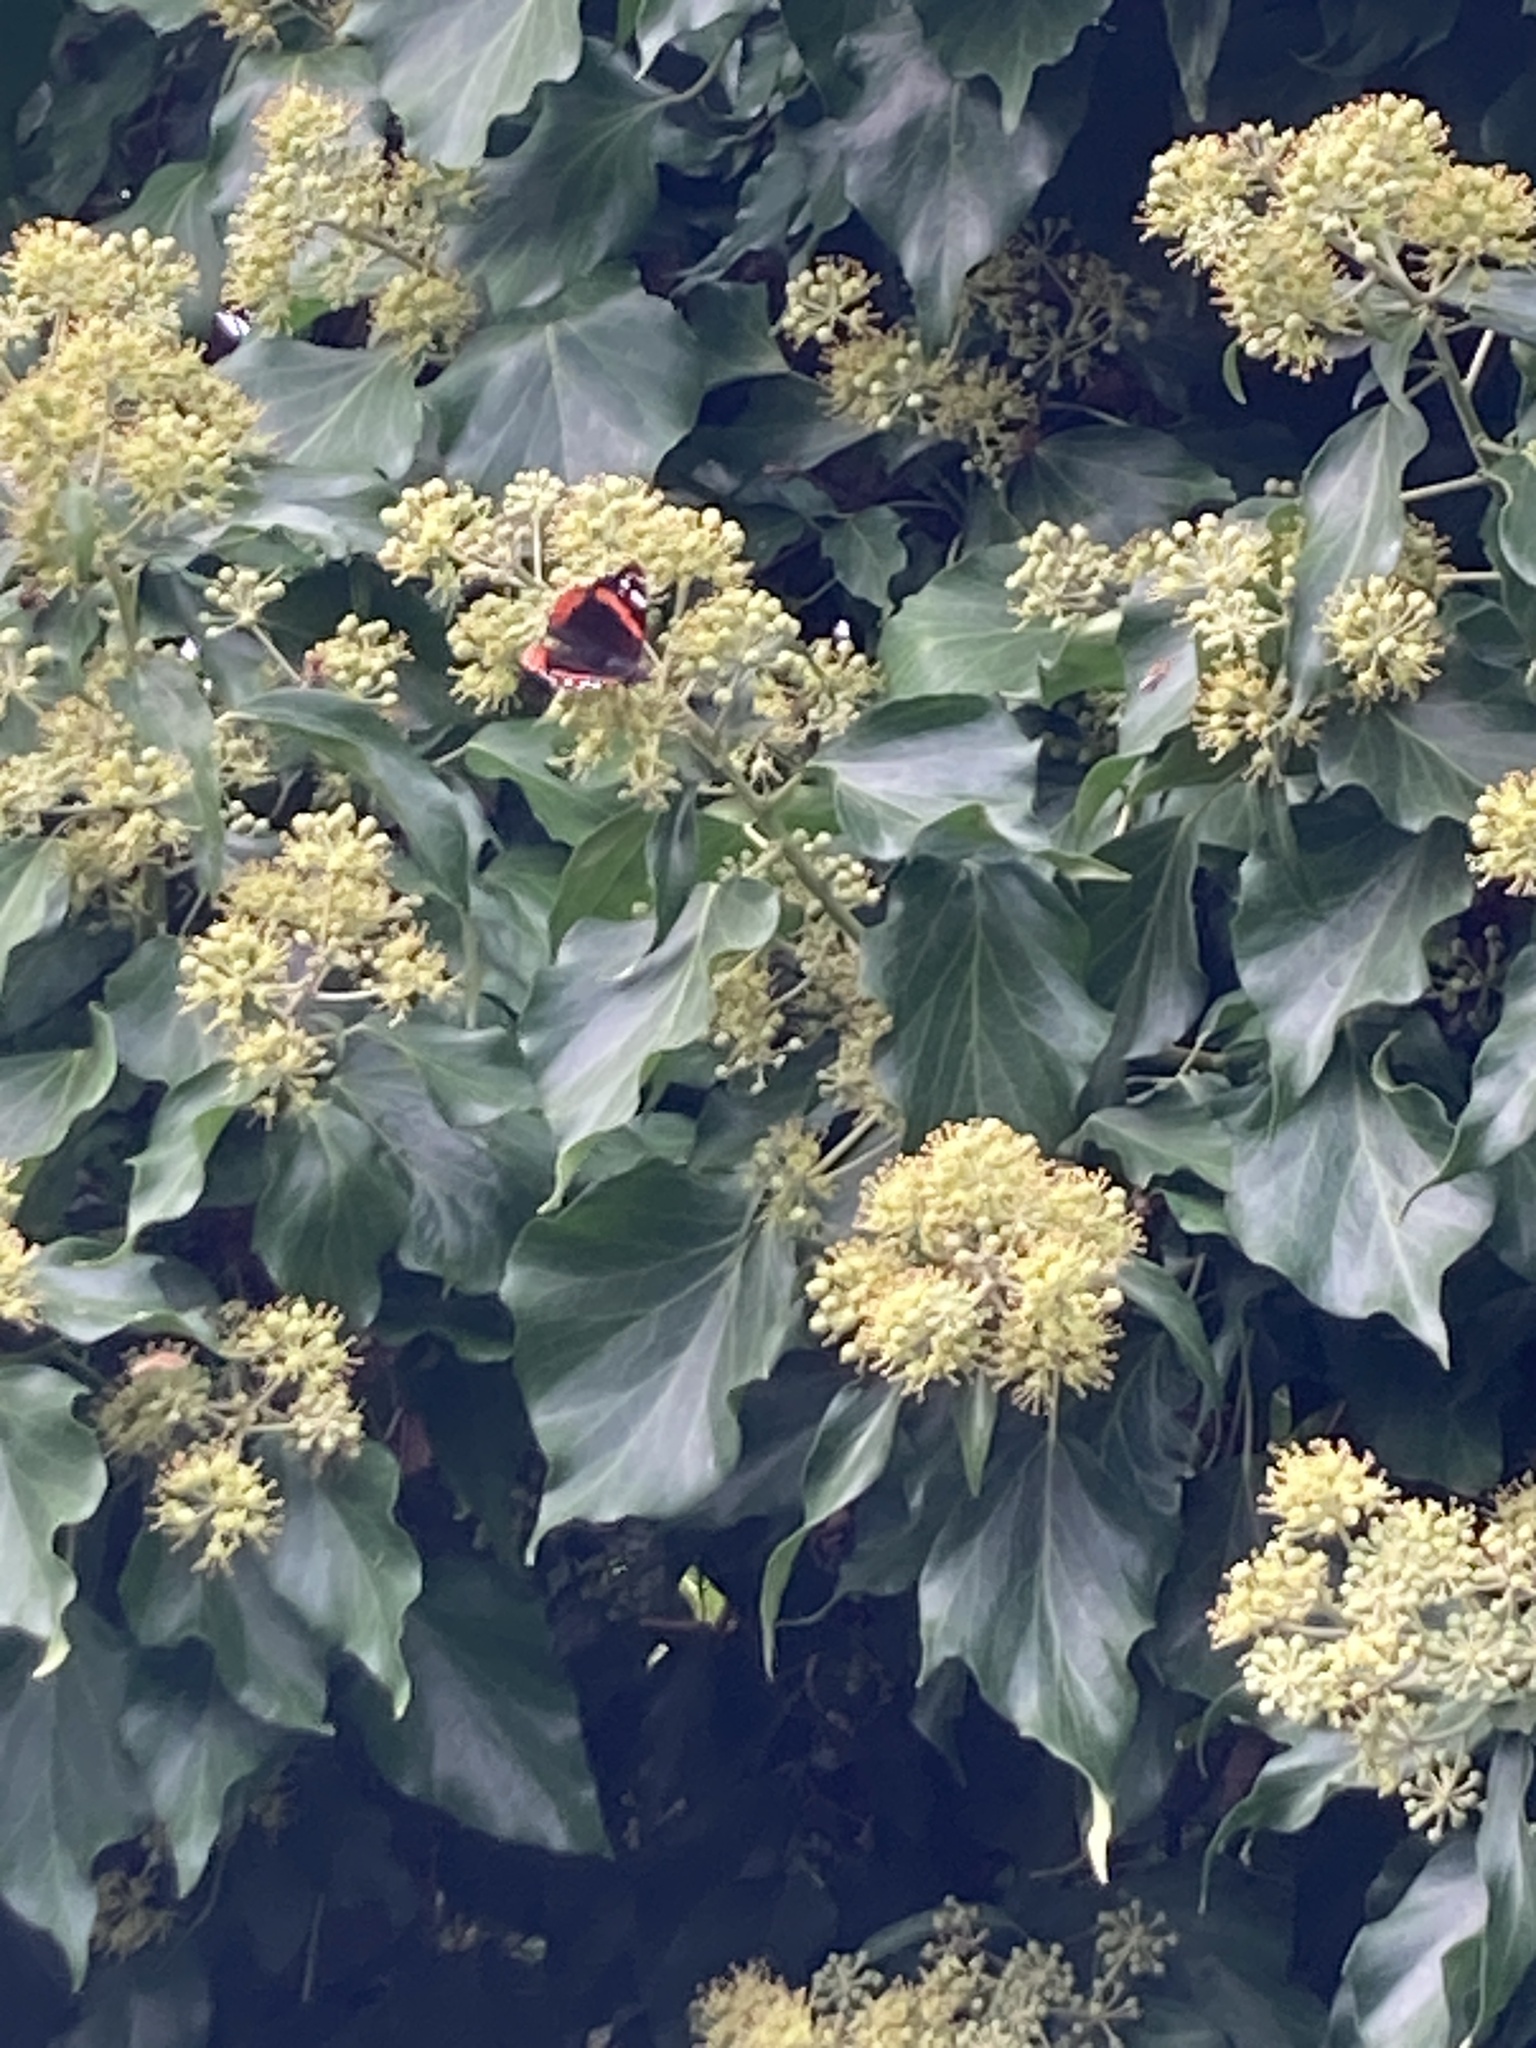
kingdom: Animalia
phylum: Arthropoda
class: Insecta
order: Lepidoptera
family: Nymphalidae
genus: Vanessa
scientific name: Vanessa atalanta
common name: Red admiral
